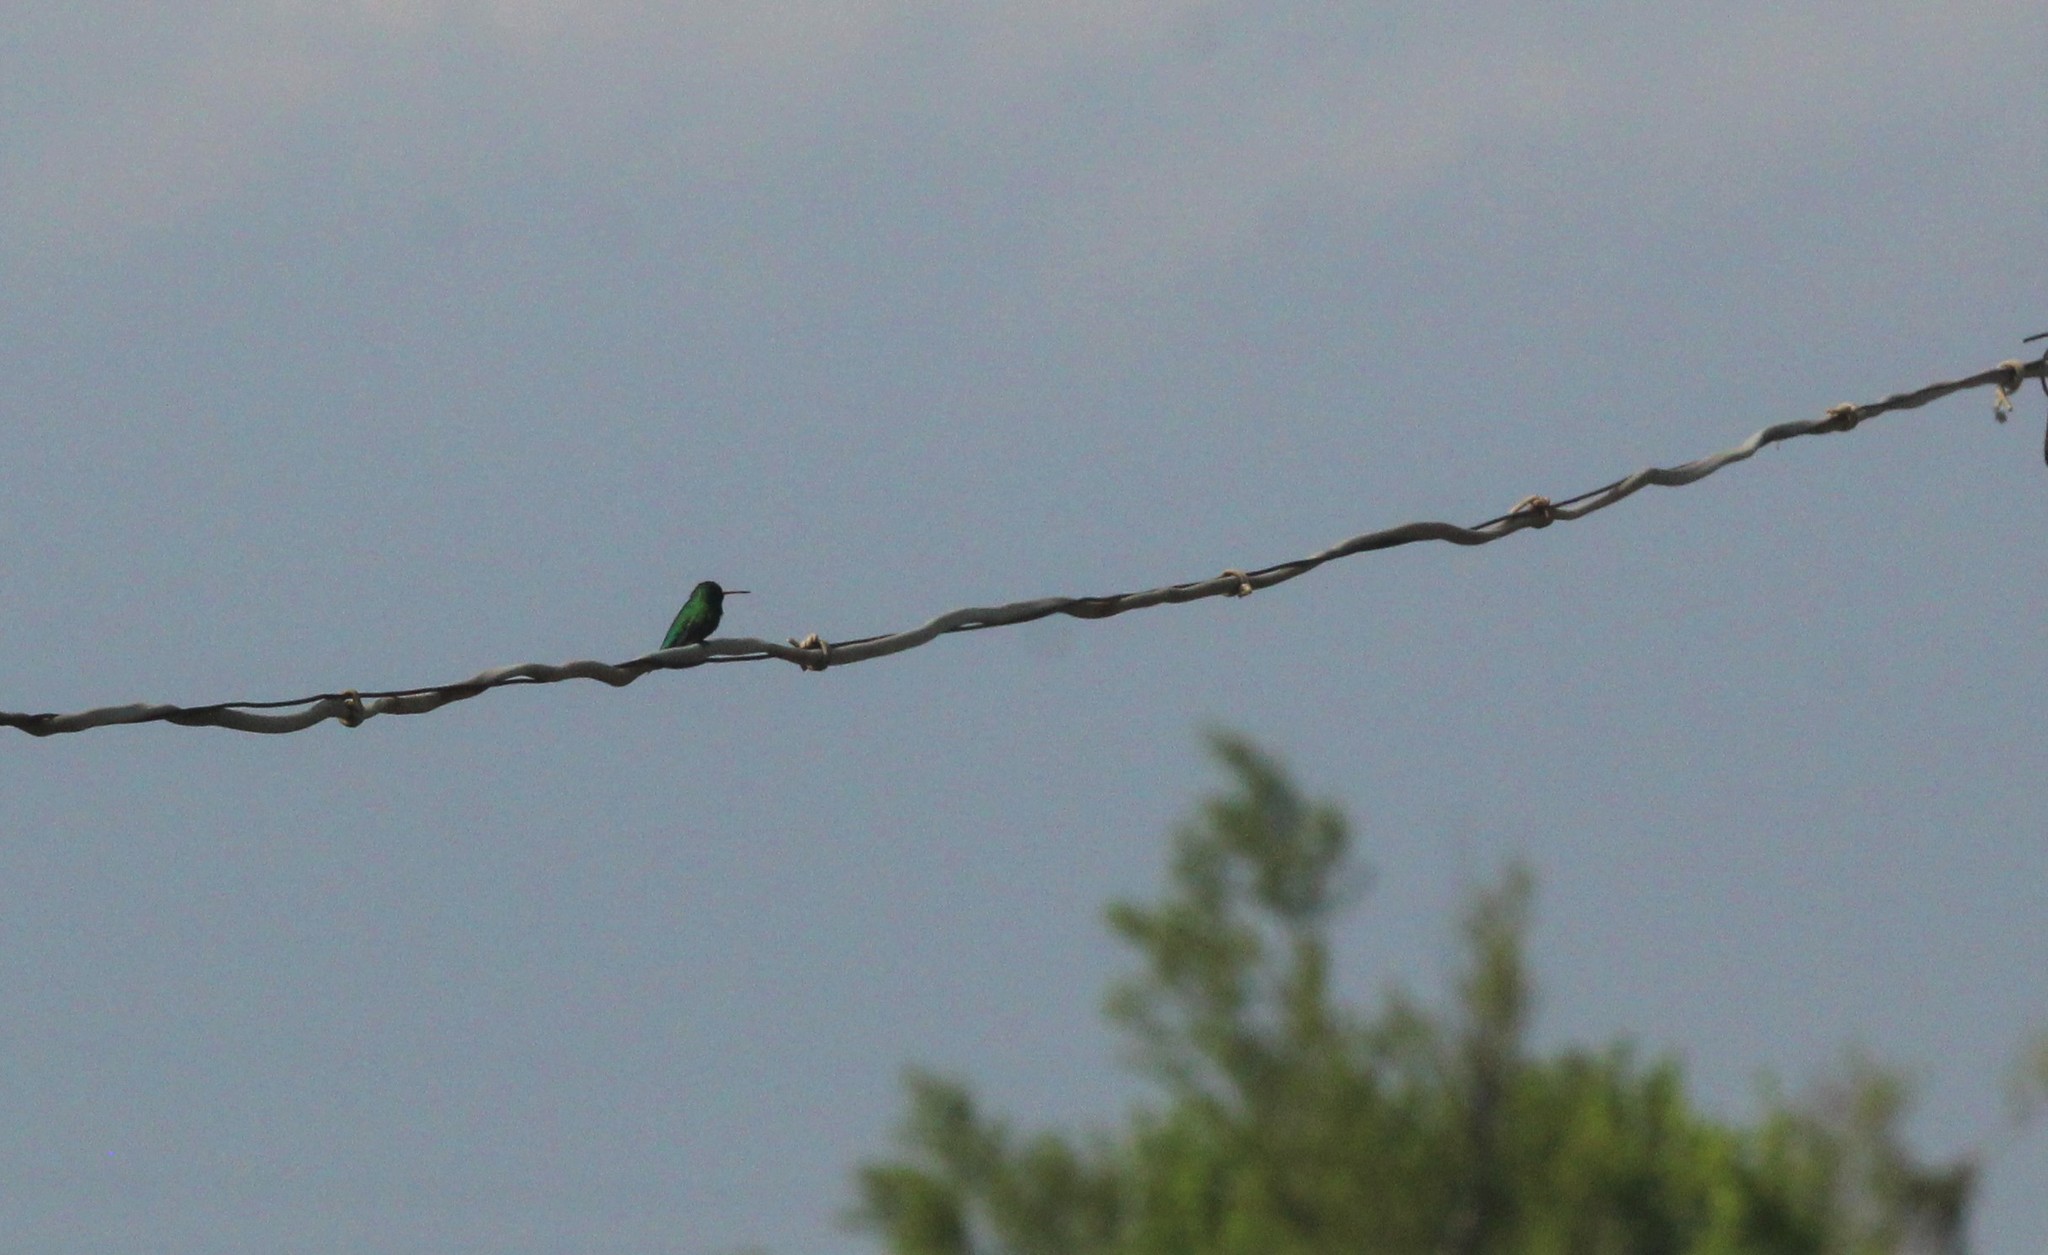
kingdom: Animalia
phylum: Chordata
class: Aves
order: Apodiformes
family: Trochilidae
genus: Chlorostilbon
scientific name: Chlorostilbon lucidus
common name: Glittering-bellied emerald
